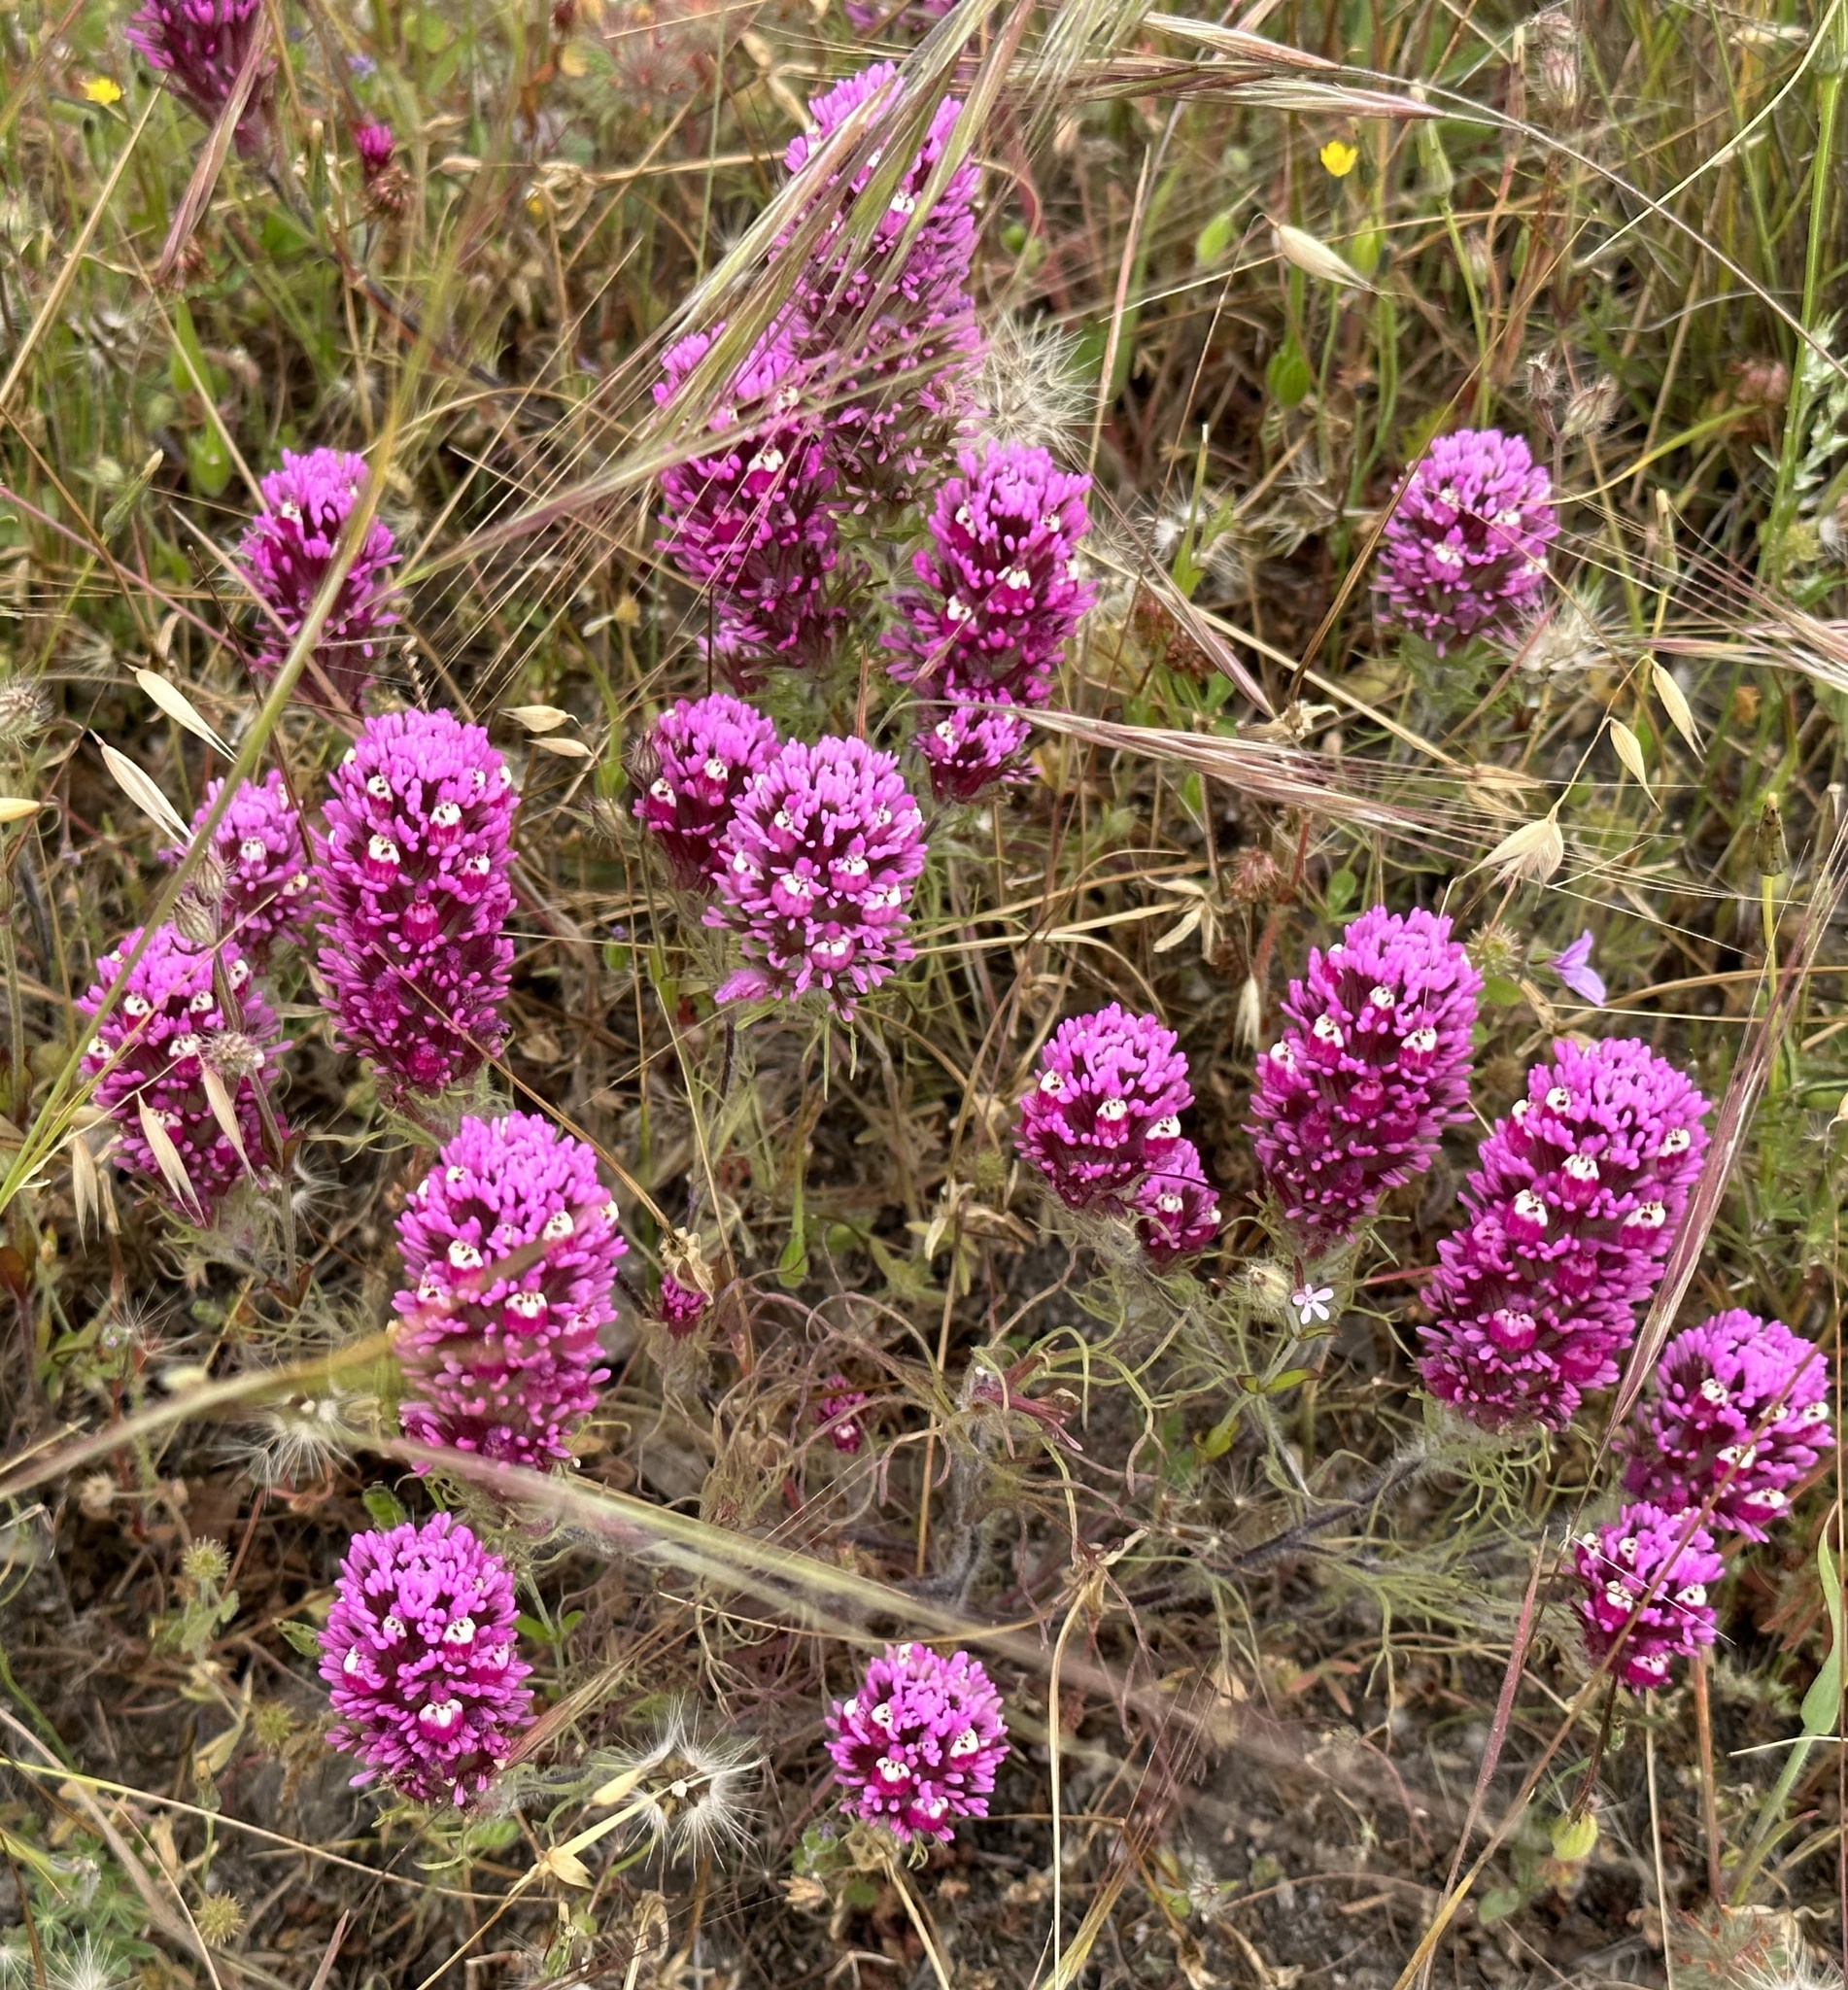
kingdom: Plantae
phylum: Tracheophyta
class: Magnoliopsida
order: Lamiales
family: Orobanchaceae
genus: Castilleja
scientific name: Castilleja exserta
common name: Purple owl-clover
